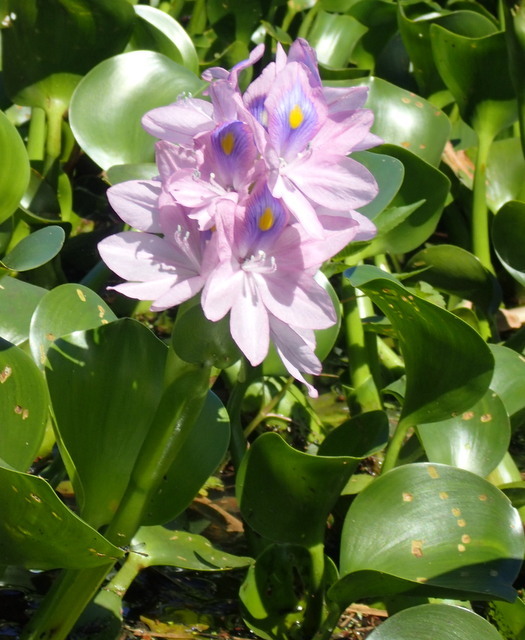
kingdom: Plantae
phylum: Tracheophyta
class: Liliopsida
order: Commelinales
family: Pontederiaceae
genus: Pontederia
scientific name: Pontederia crassipes
